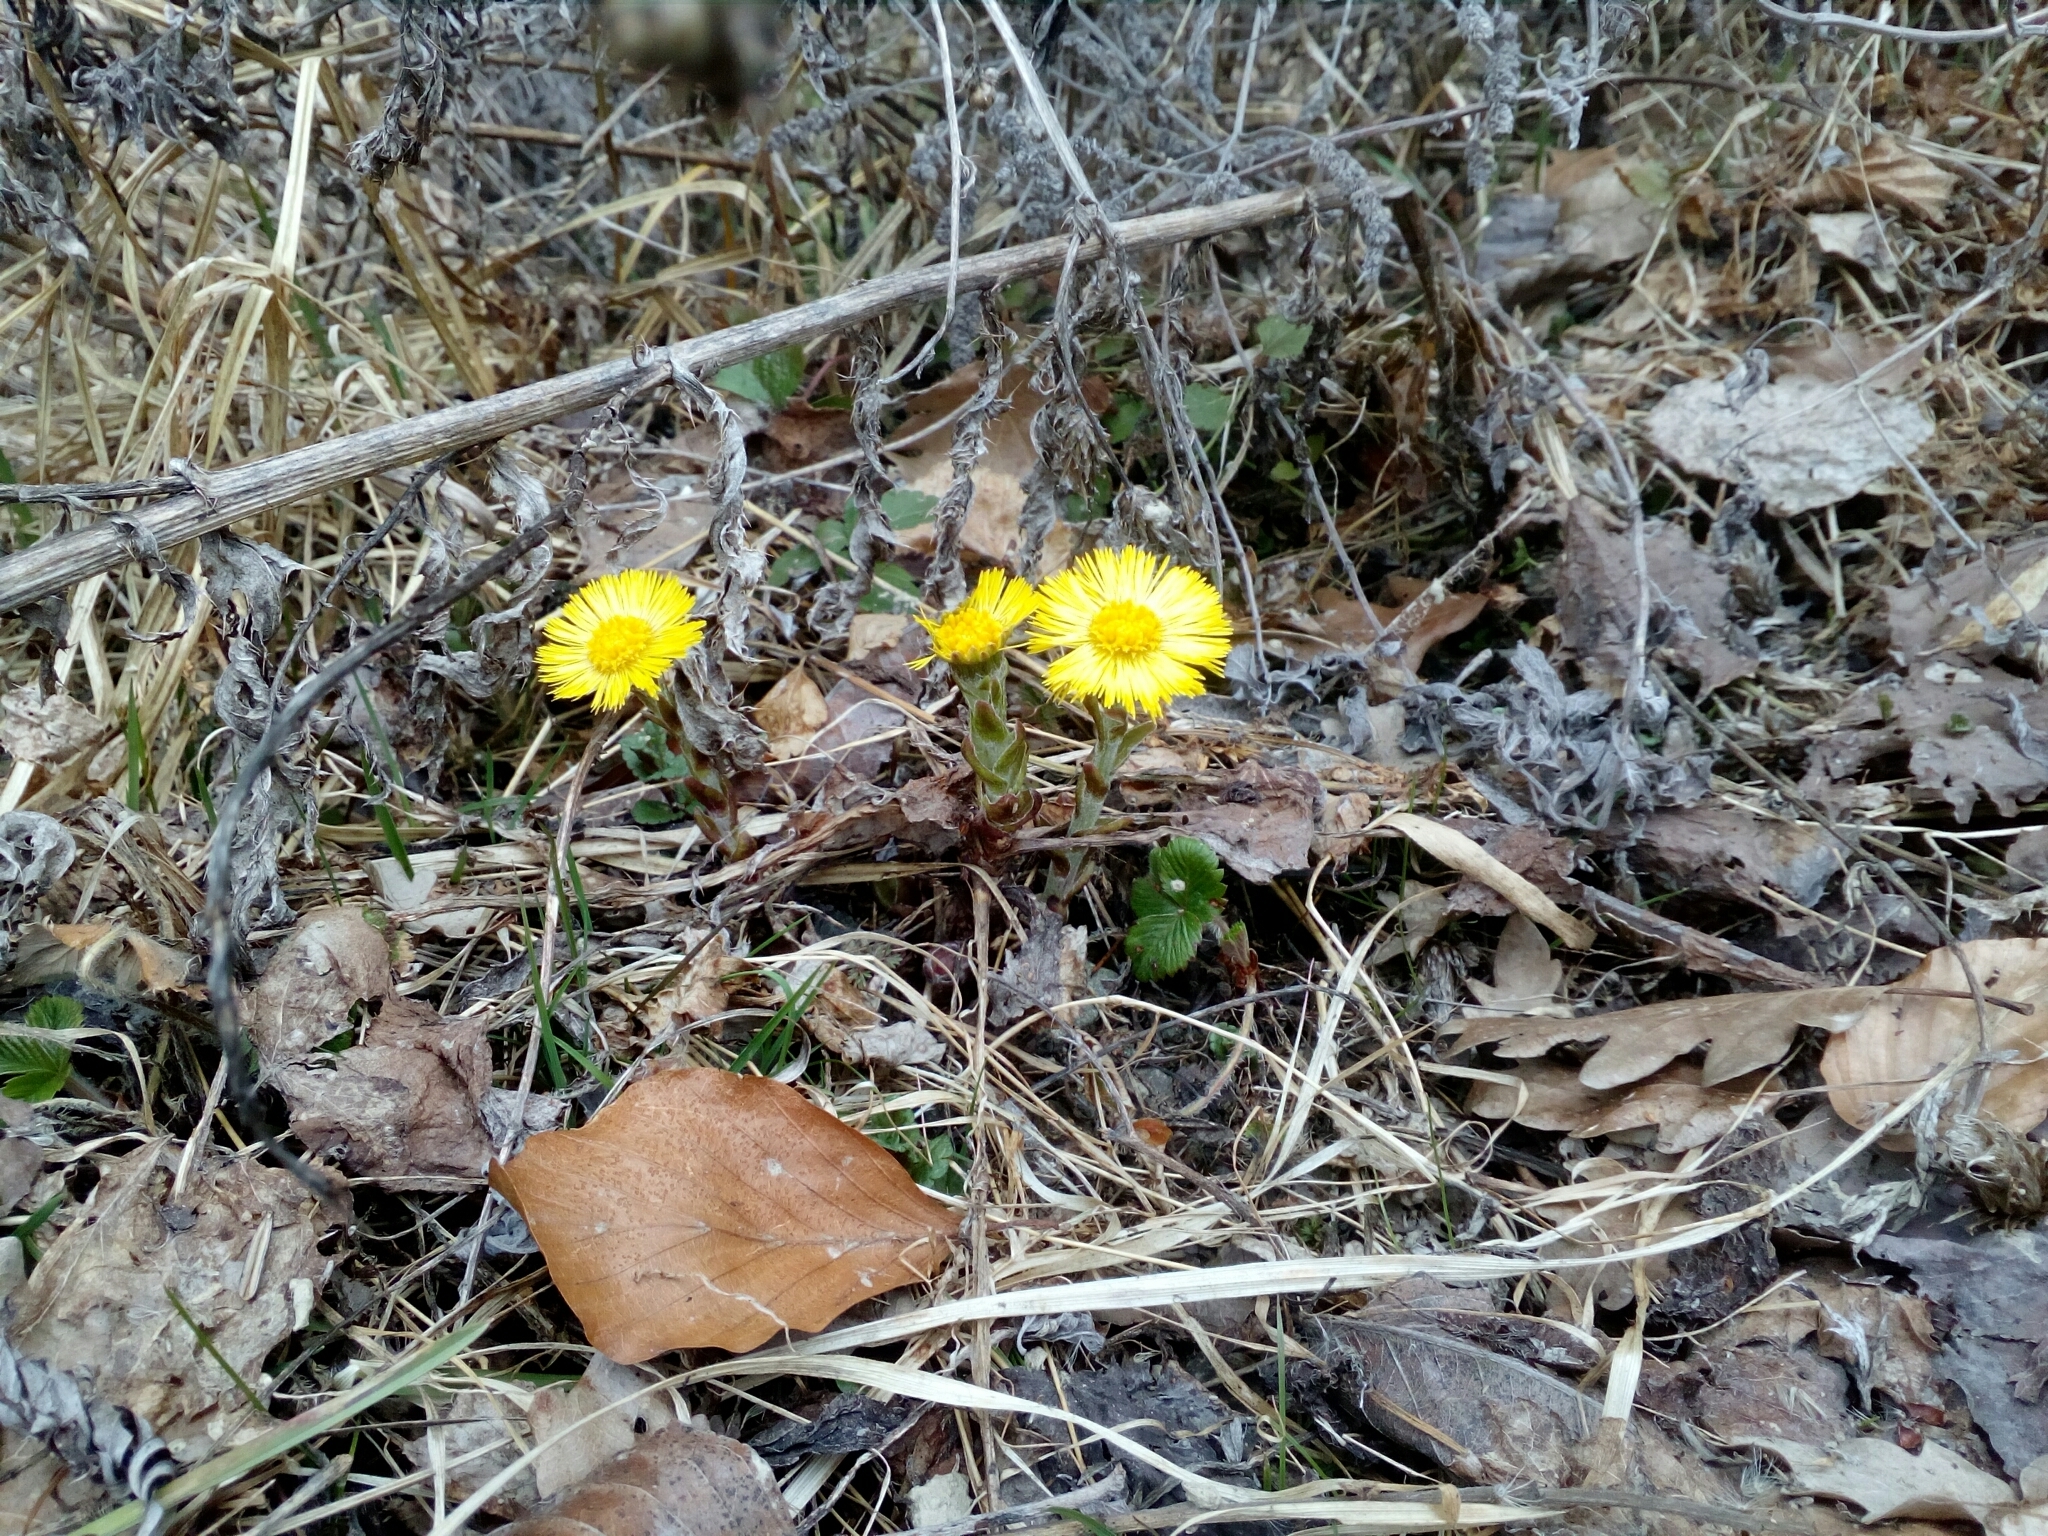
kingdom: Plantae
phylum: Tracheophyta
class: Magnoliopsida
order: Asterales
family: Asteraceae
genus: Tussilago
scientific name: Tussilago farfara
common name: Coltsfoot
